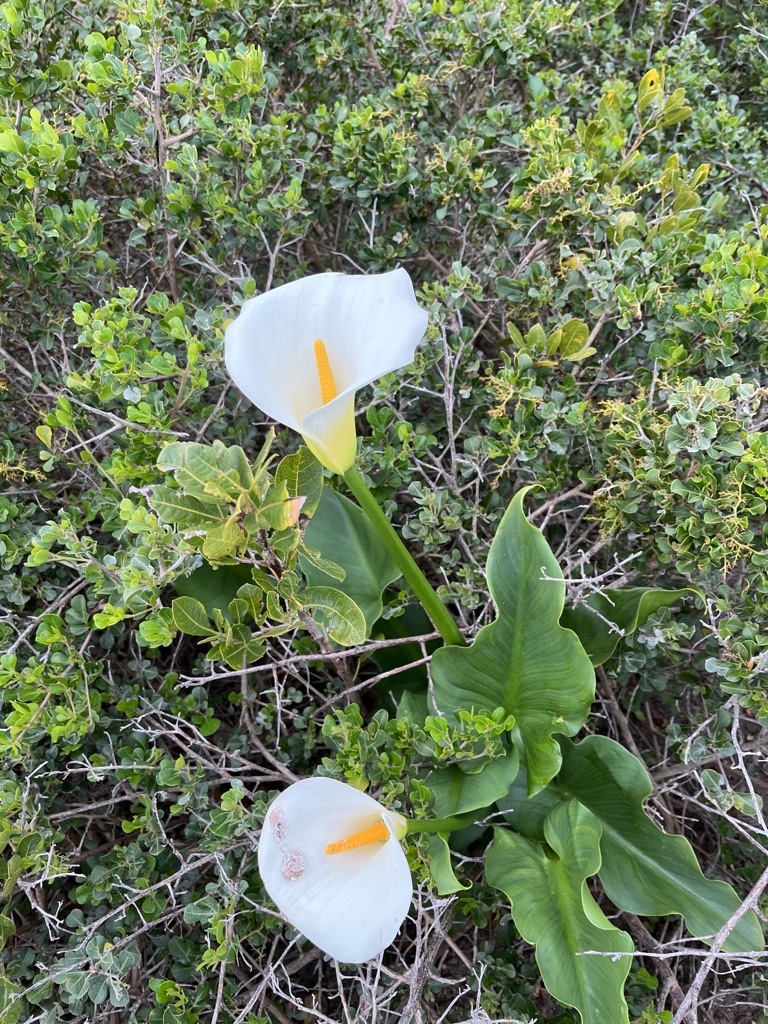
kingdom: Plantae
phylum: Tracheophyta
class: Liliopsida
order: Alismatales
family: Araceae
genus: Zantedeschia
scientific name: Zantedeschia aethiopica
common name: Altar-lily
